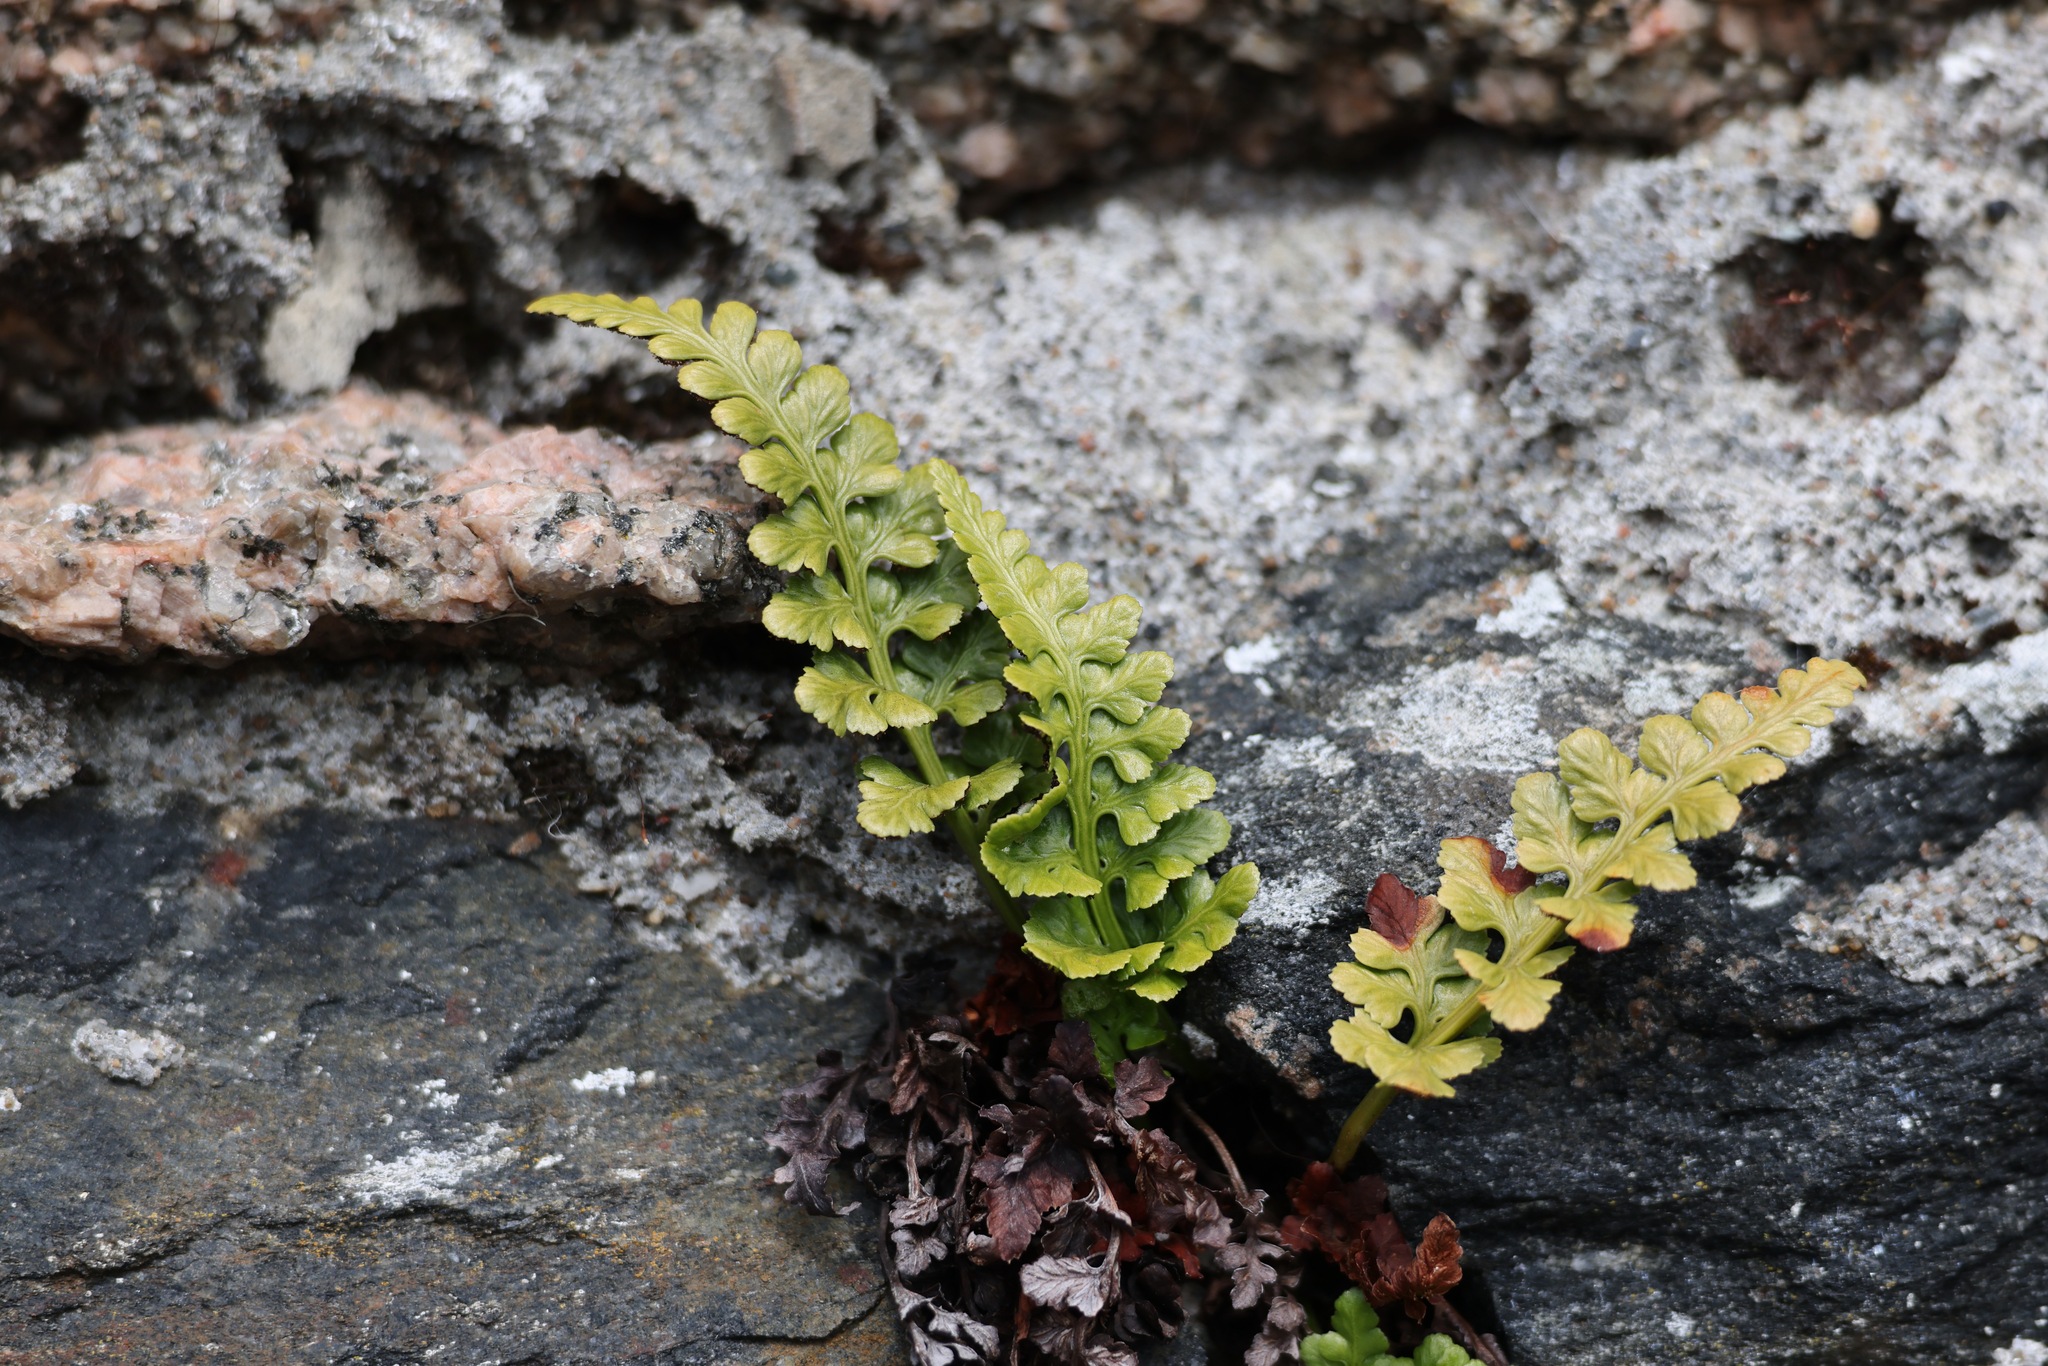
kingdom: Plantae
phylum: Tracheophyta
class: Polypodiopsida
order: Polypodiales
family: Aspleniaceae
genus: Asplenium
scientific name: Asplenium adiantum-nigrum
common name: Black spleenwort
